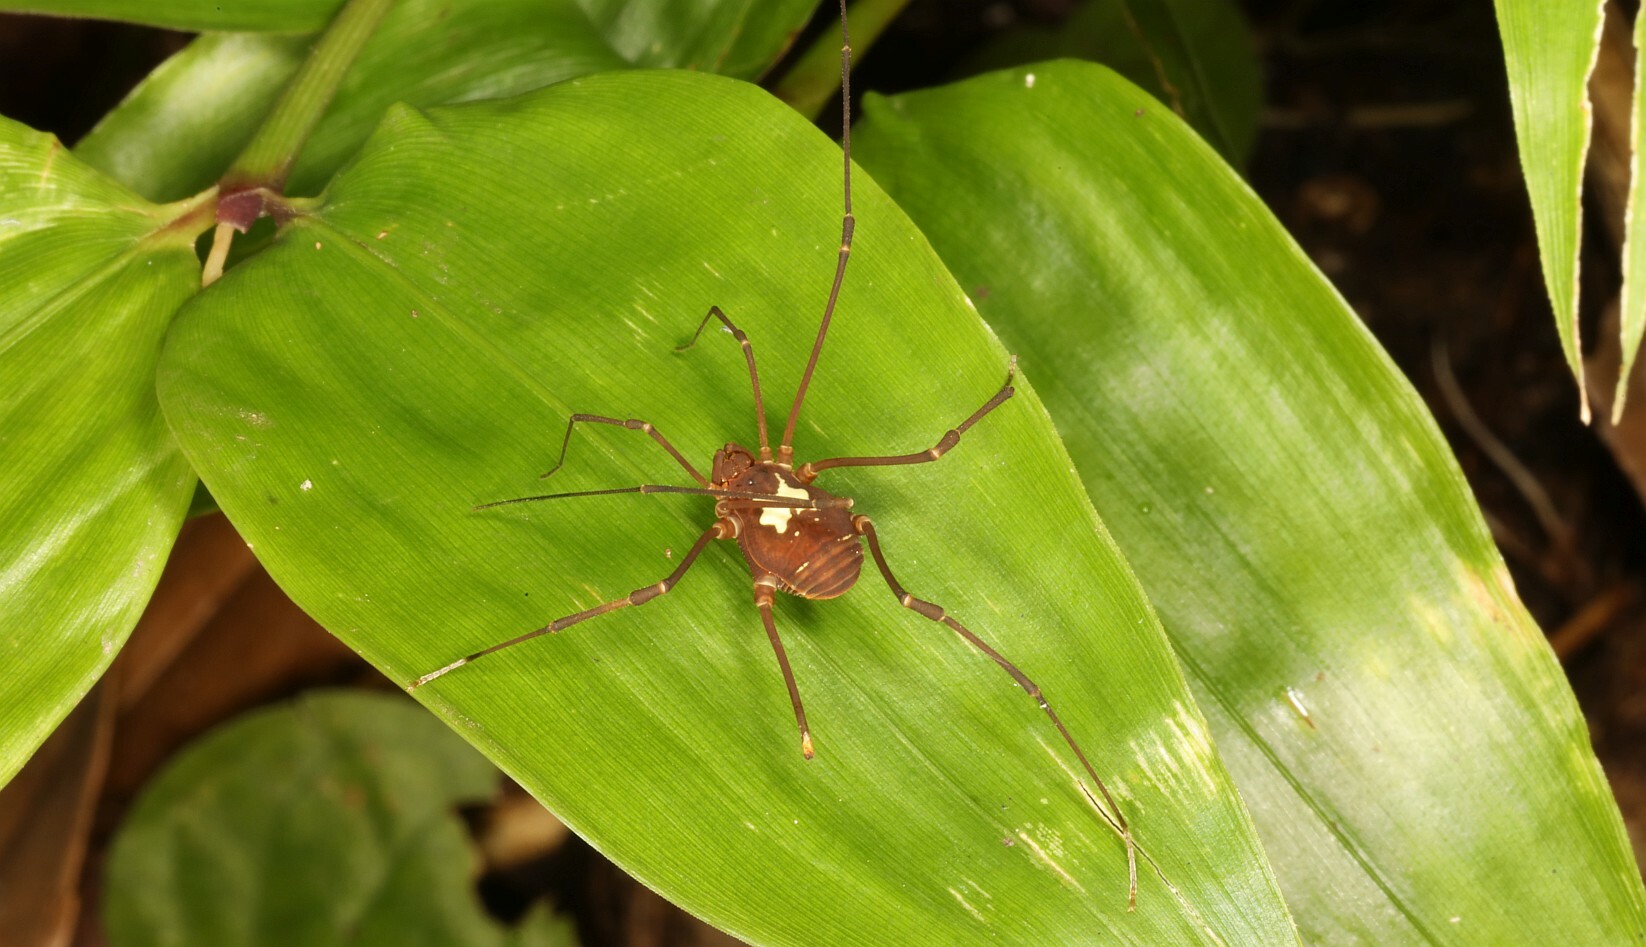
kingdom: Animalia
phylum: Arthropoda
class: Arachnida
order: Opiliones
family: Cosmetidae
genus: Vononana
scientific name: Vononana adrik
